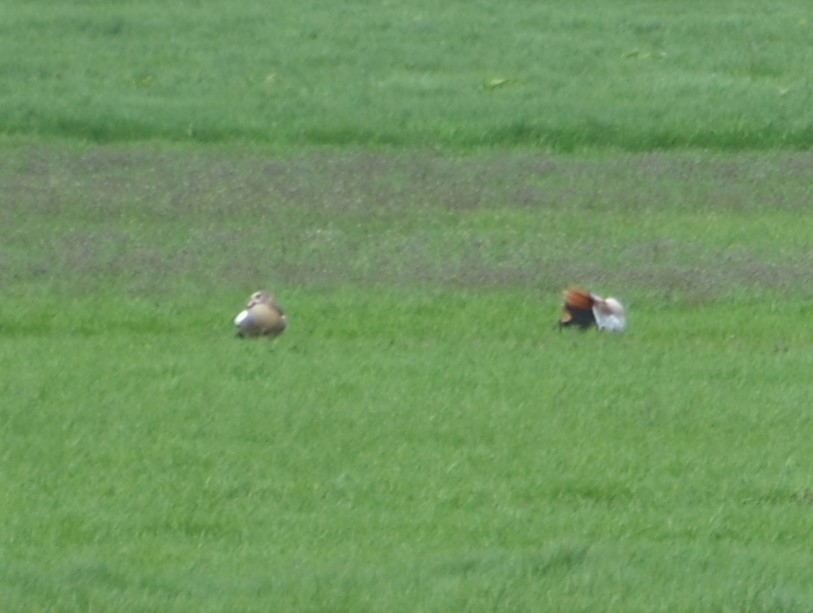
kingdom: Animalia
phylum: Chordata
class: Aves
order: Anseriformes
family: Anatidae
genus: Alopochen
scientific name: Alopochen aegyptiaca
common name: Egyptian goose
